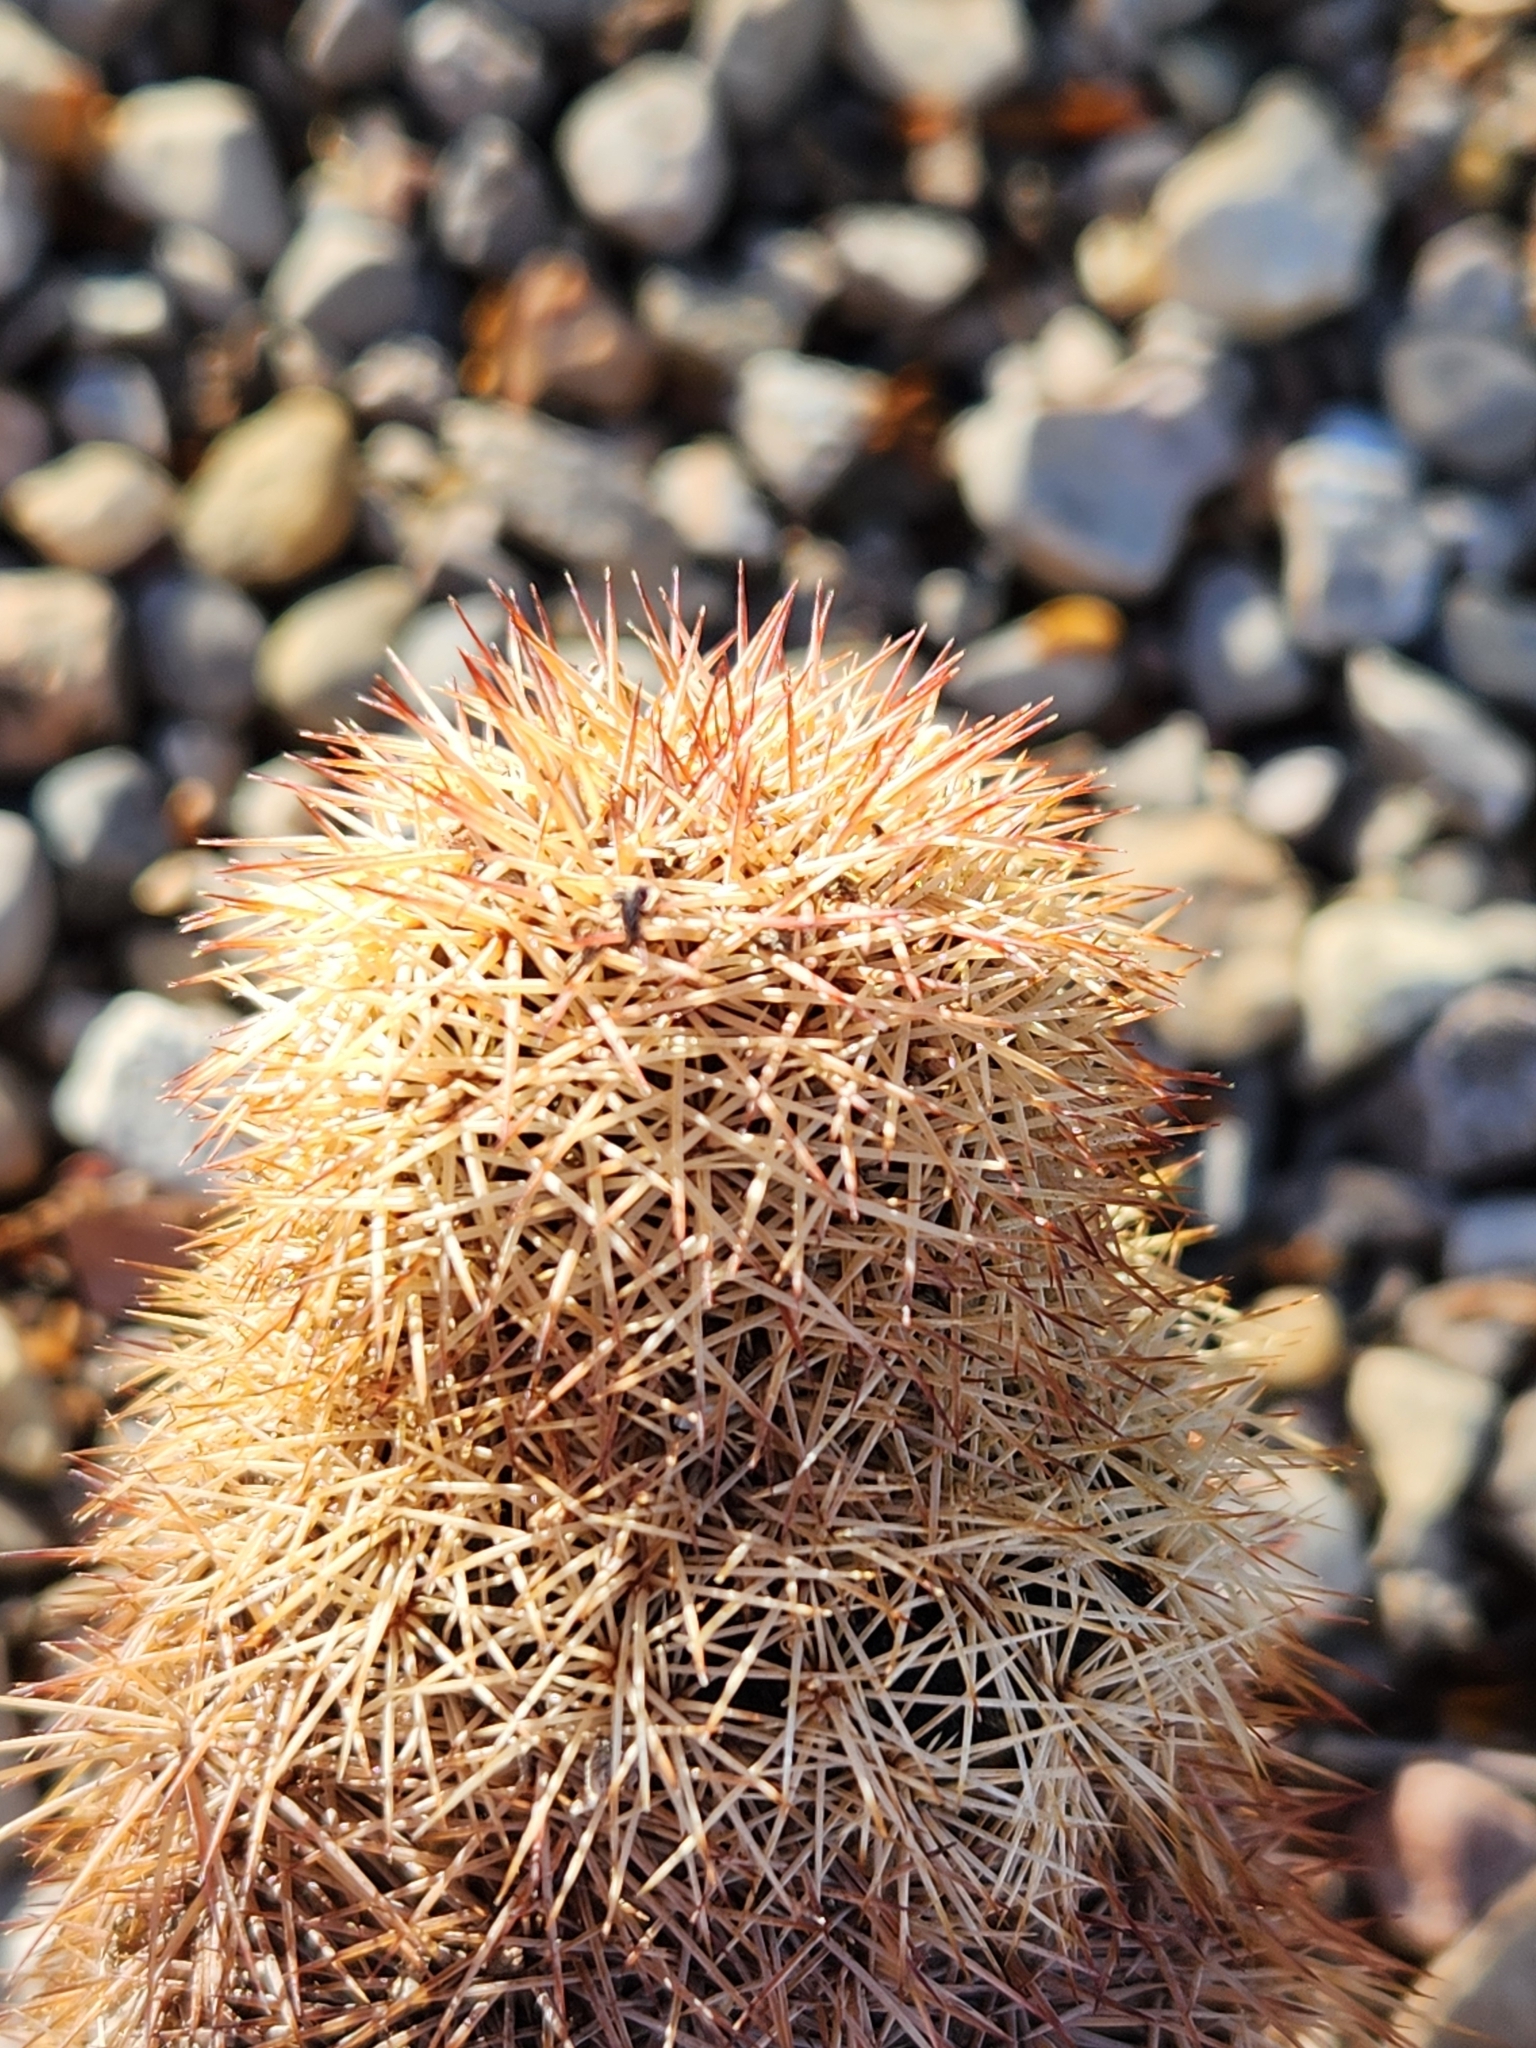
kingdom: Plantae
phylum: Tracheophyta
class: Magnoliopsida
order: Caryophyllales
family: Cactaceae
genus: Echinocereus
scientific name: Echinocereus dasyacanthus
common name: Spiny hedgehog cactus
